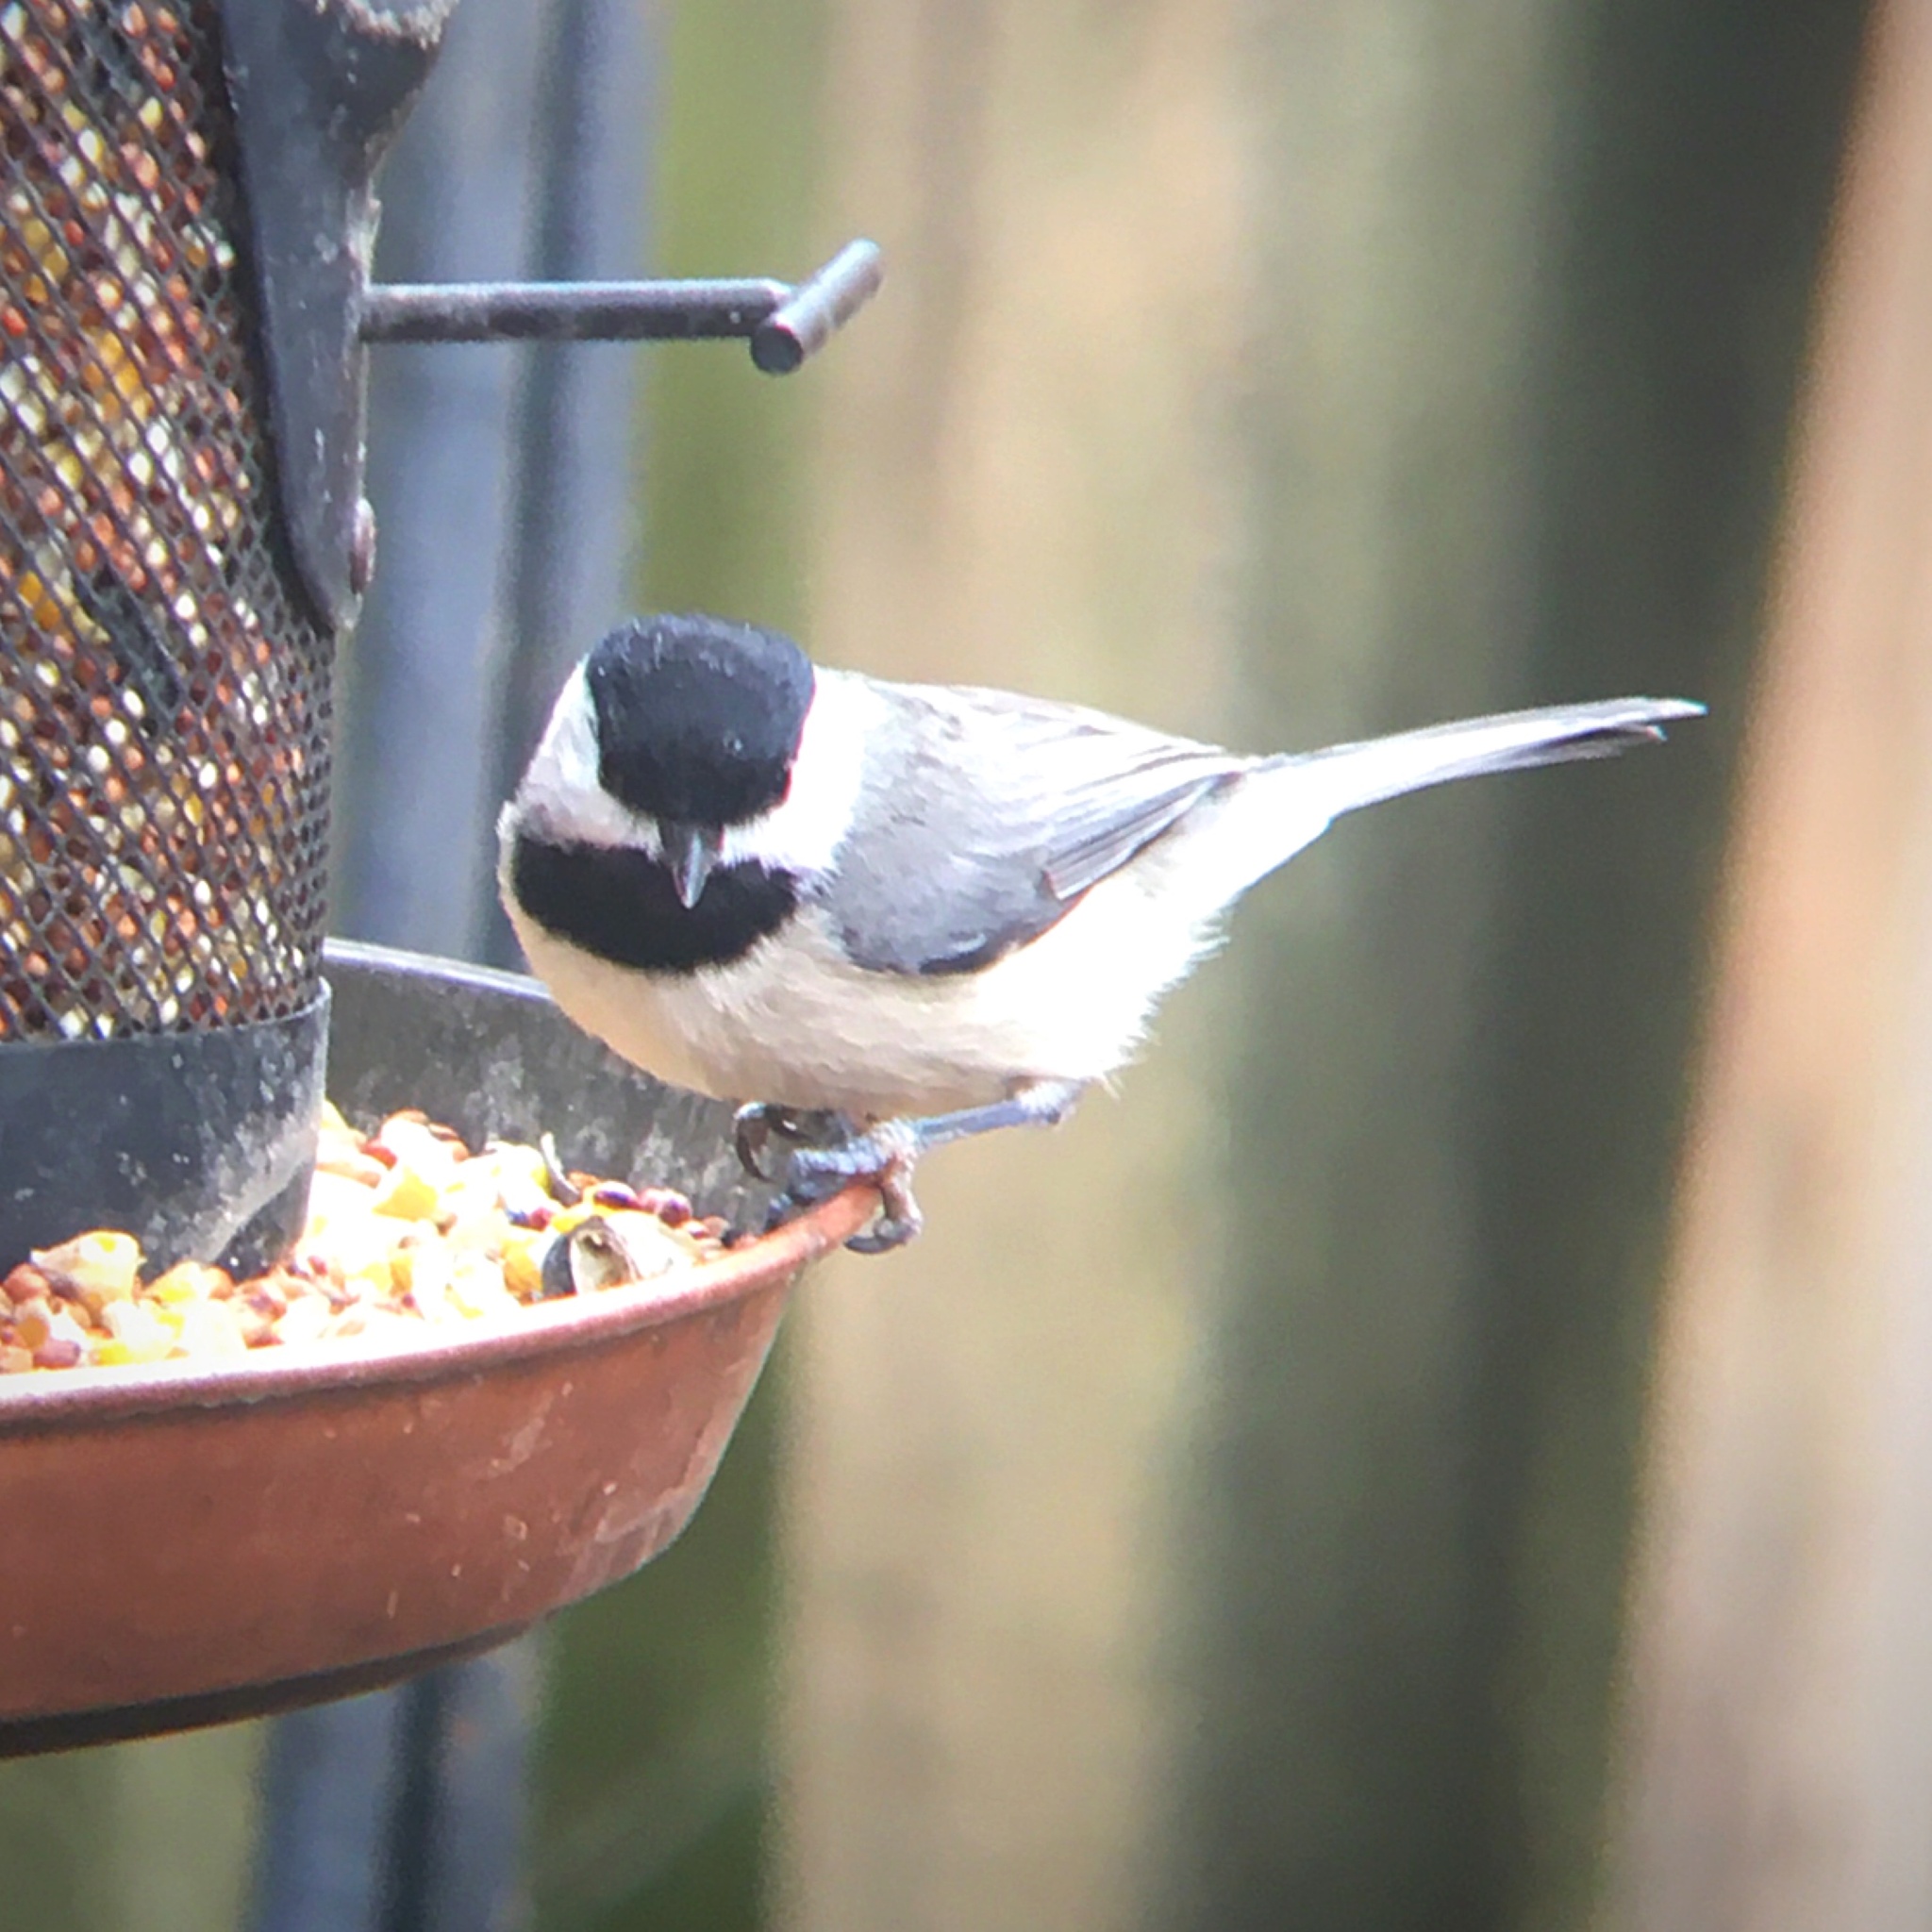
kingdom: Animalia
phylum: Chordata
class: Aves
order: Passeriformes
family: Paridae
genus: Poecile
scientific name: Poecile carolinensis
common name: Carolina chickadee
